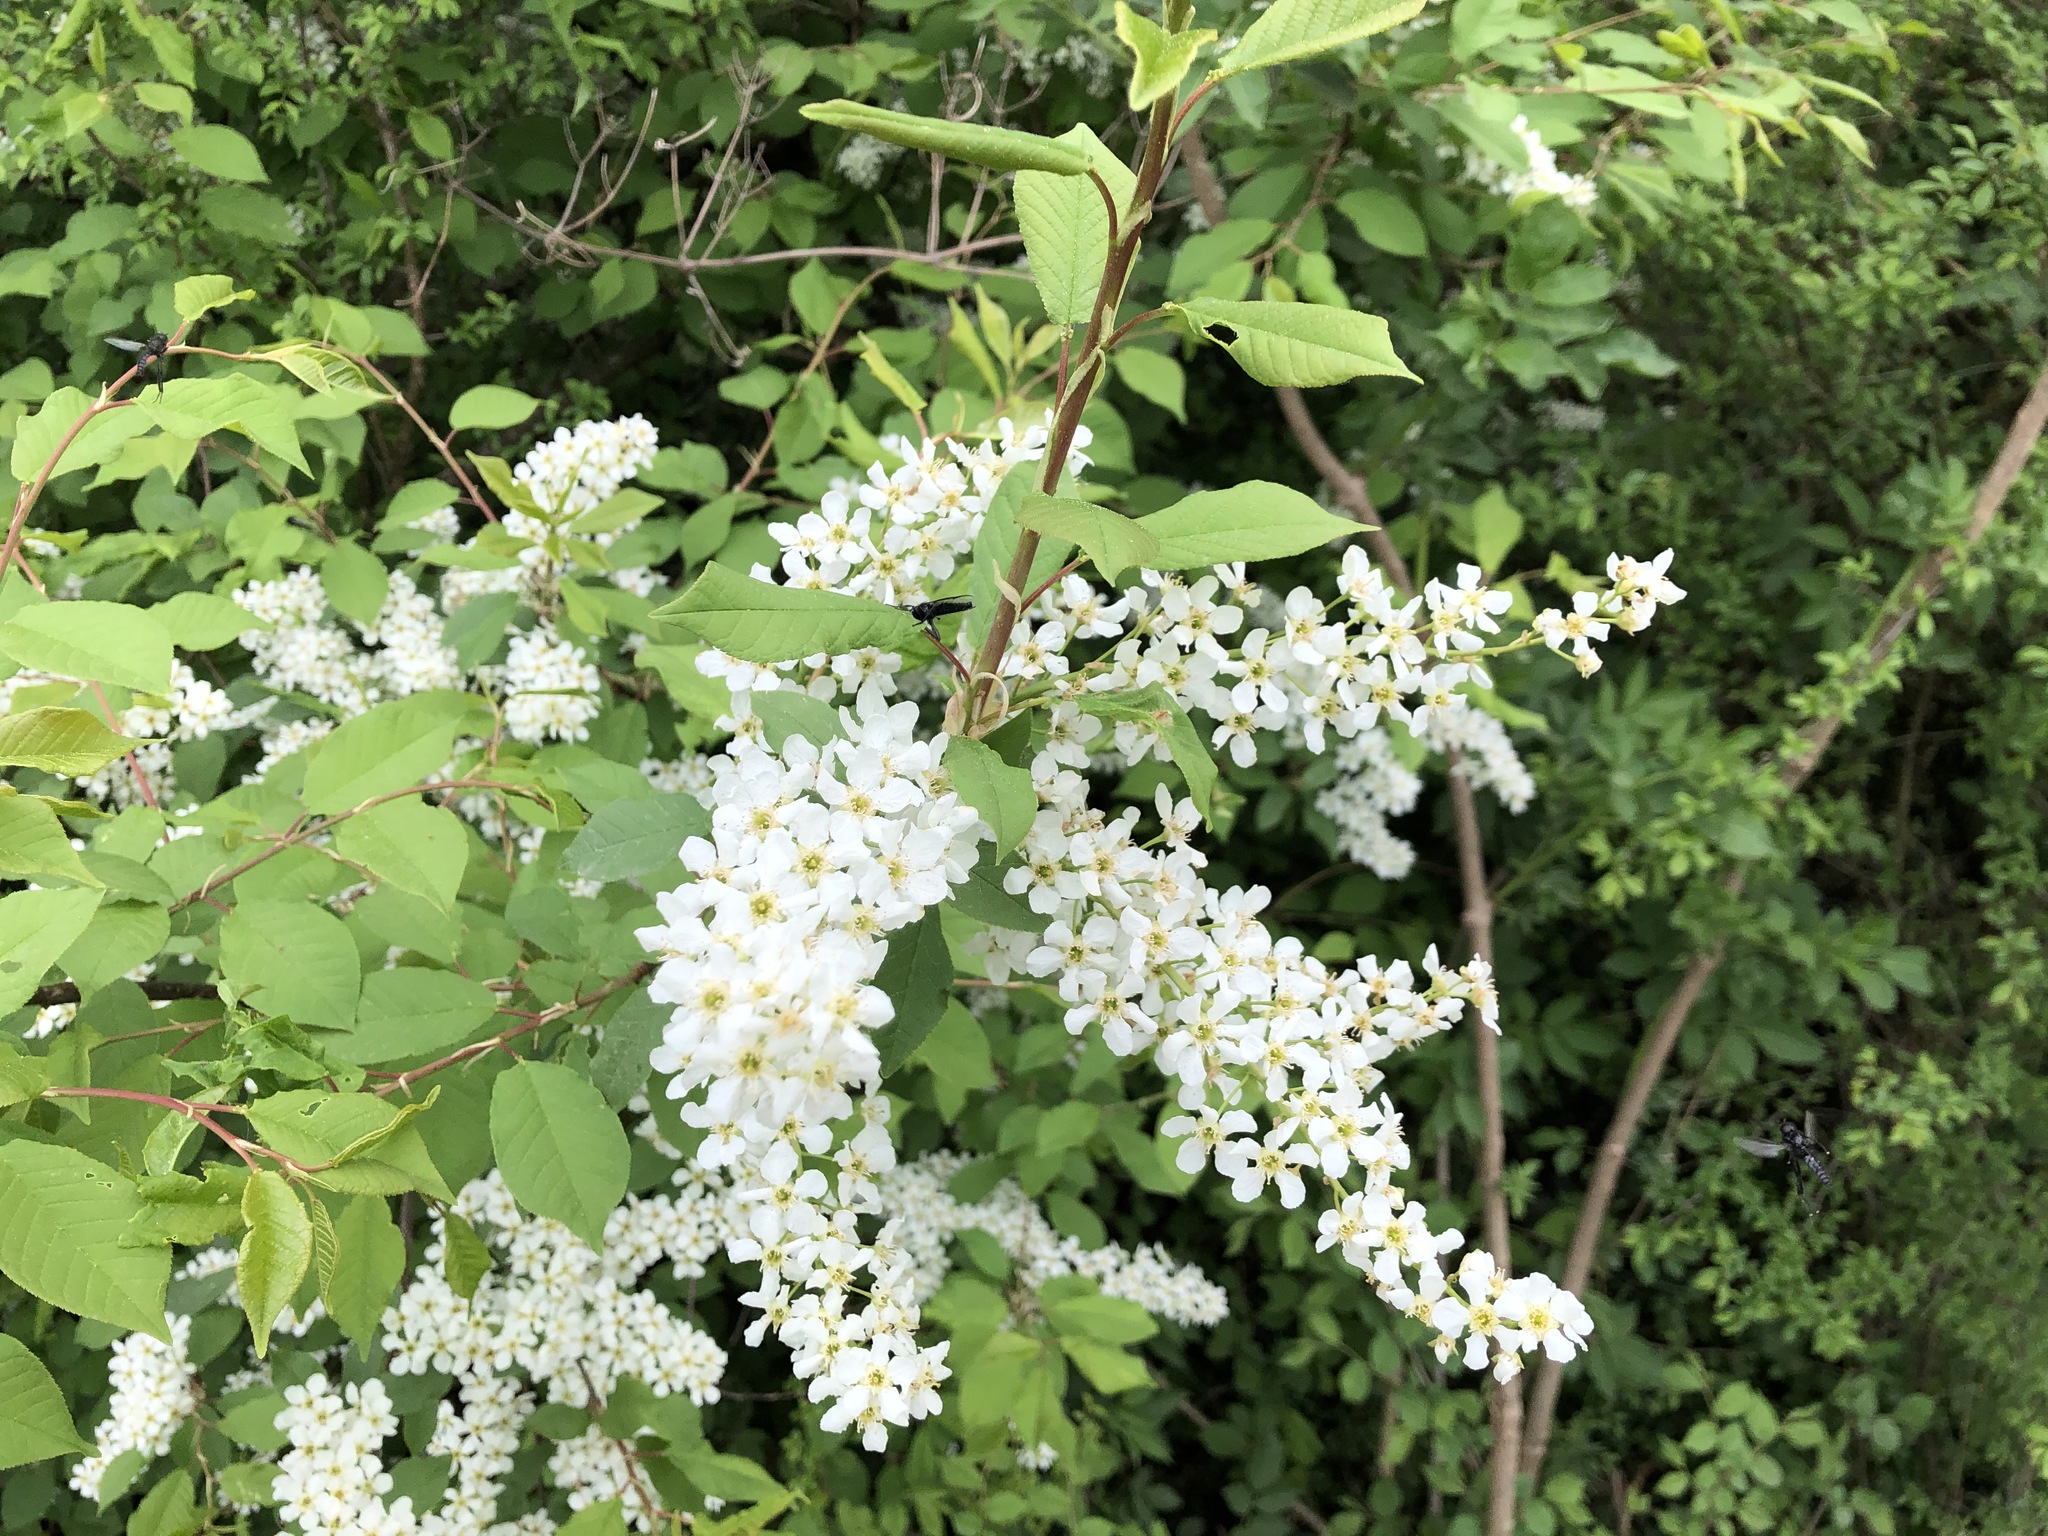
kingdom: Plantae
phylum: Tracheophyta
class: Magnoliopsida
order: Rosales
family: Rosaceae
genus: Prunus
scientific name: Prunus padus
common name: Bird cherry
